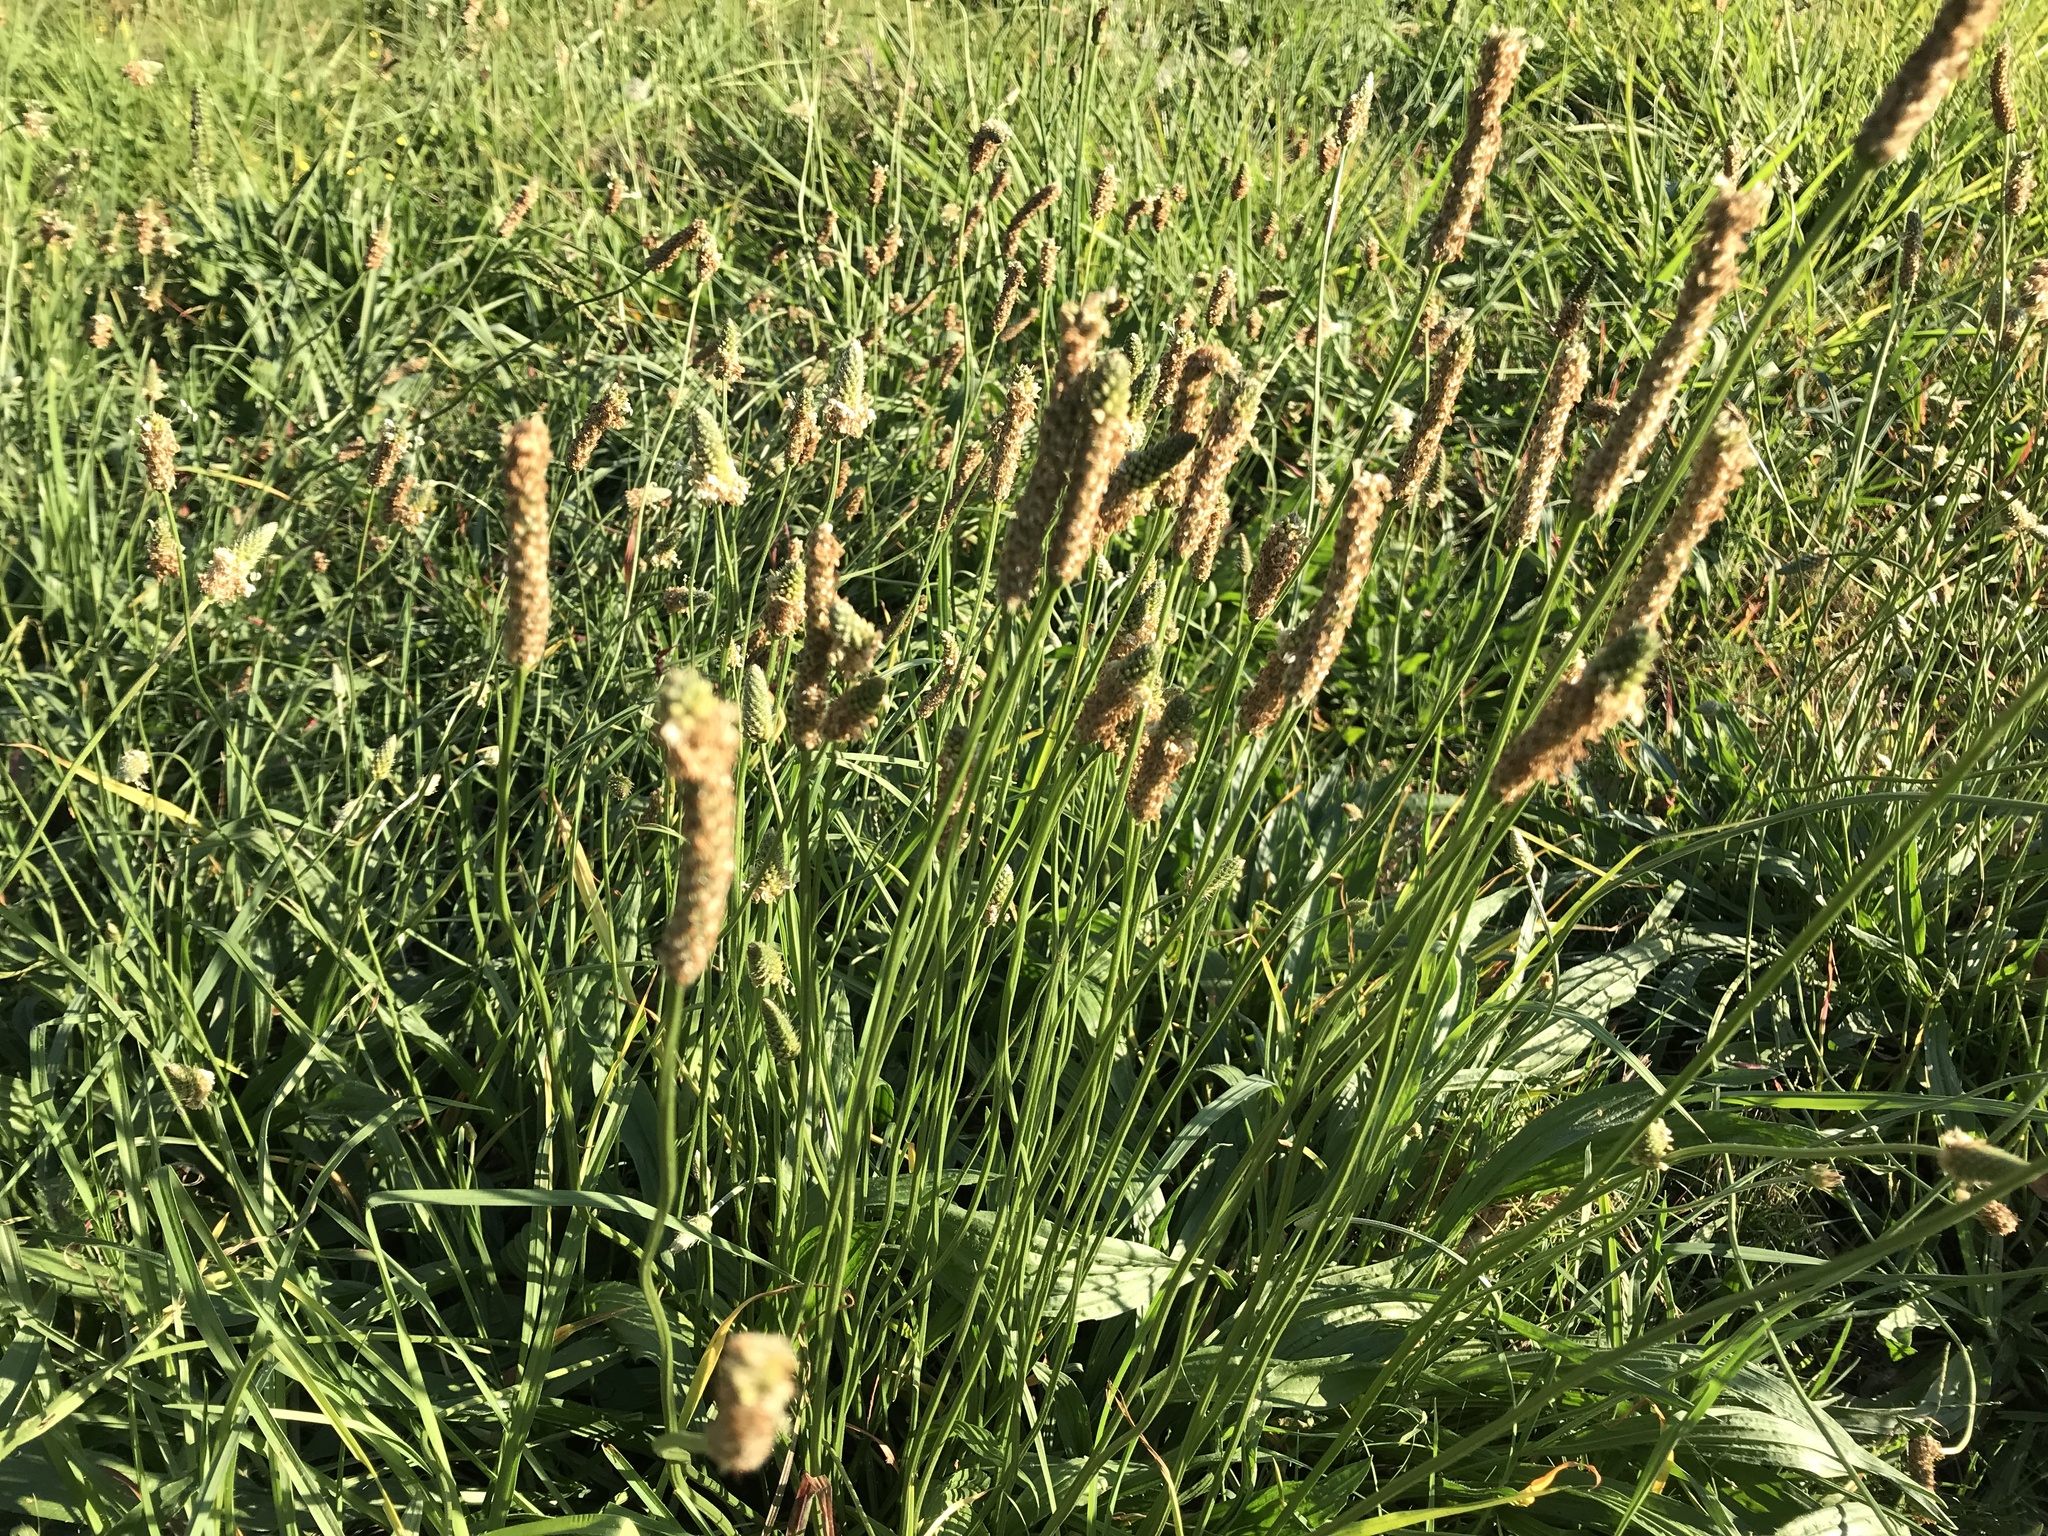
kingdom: Plantae
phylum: Tracheophyta
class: Magnoliopsida
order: Lamiales
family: Plantaginaceae
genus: Plantago
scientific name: Plantago lanceolata
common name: Ribwort plantain
